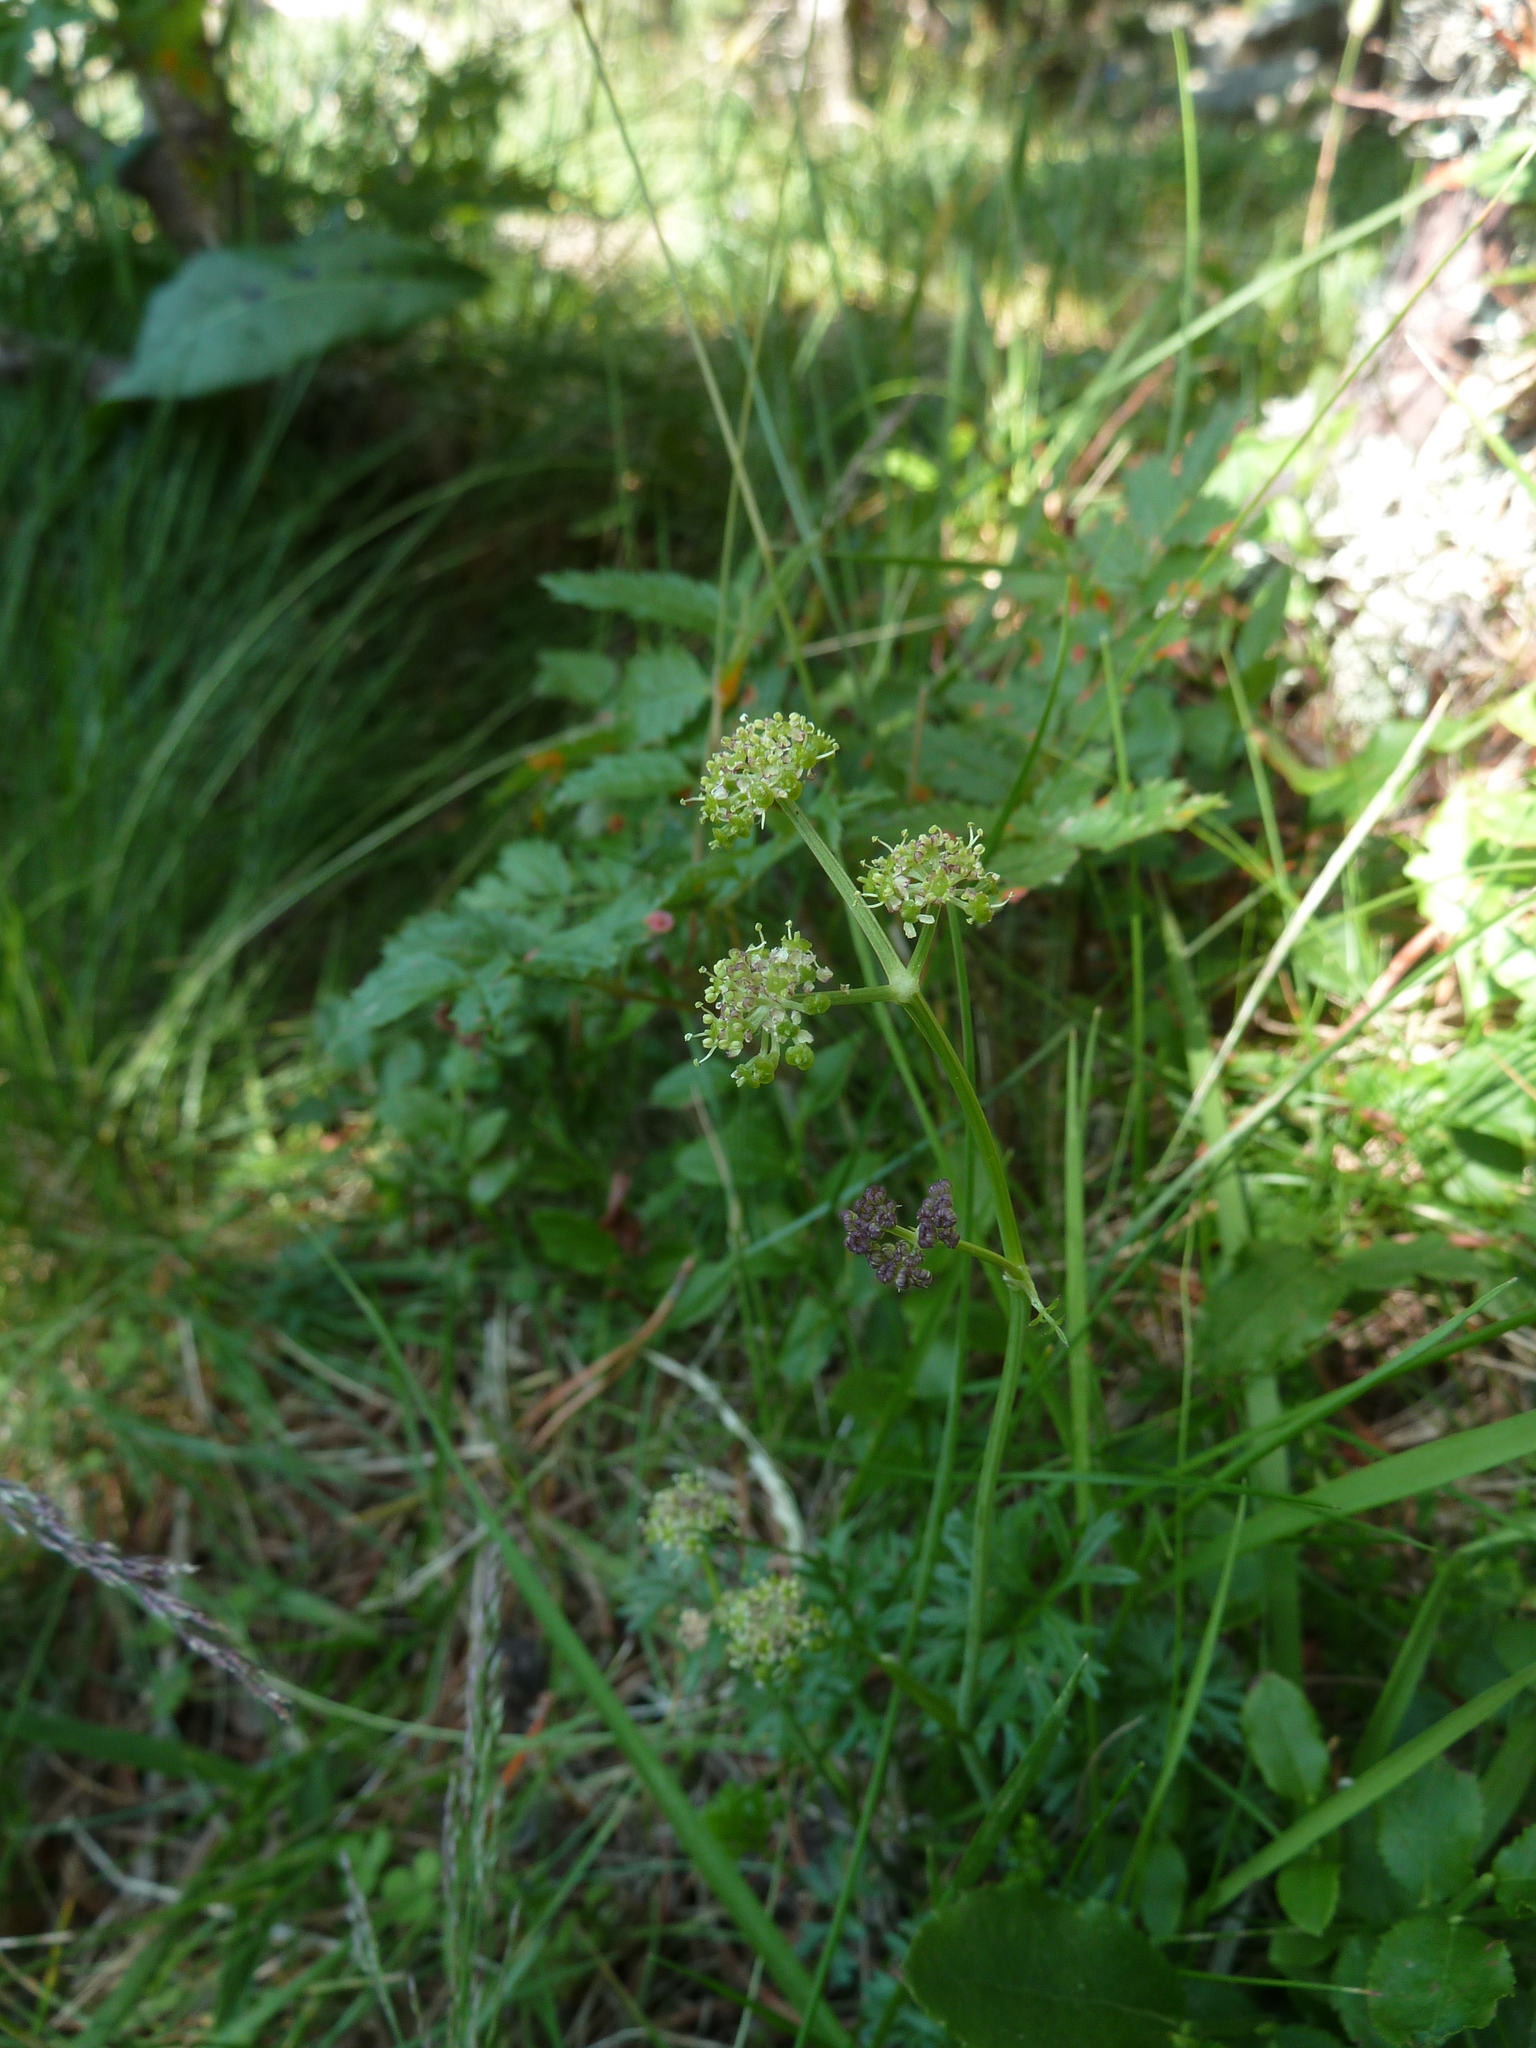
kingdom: Plantae
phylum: Tracheophyta
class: Magnoliopsida
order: Apiales
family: Apiaceae
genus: Epikeros
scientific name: Epikeros pyrenaeus
